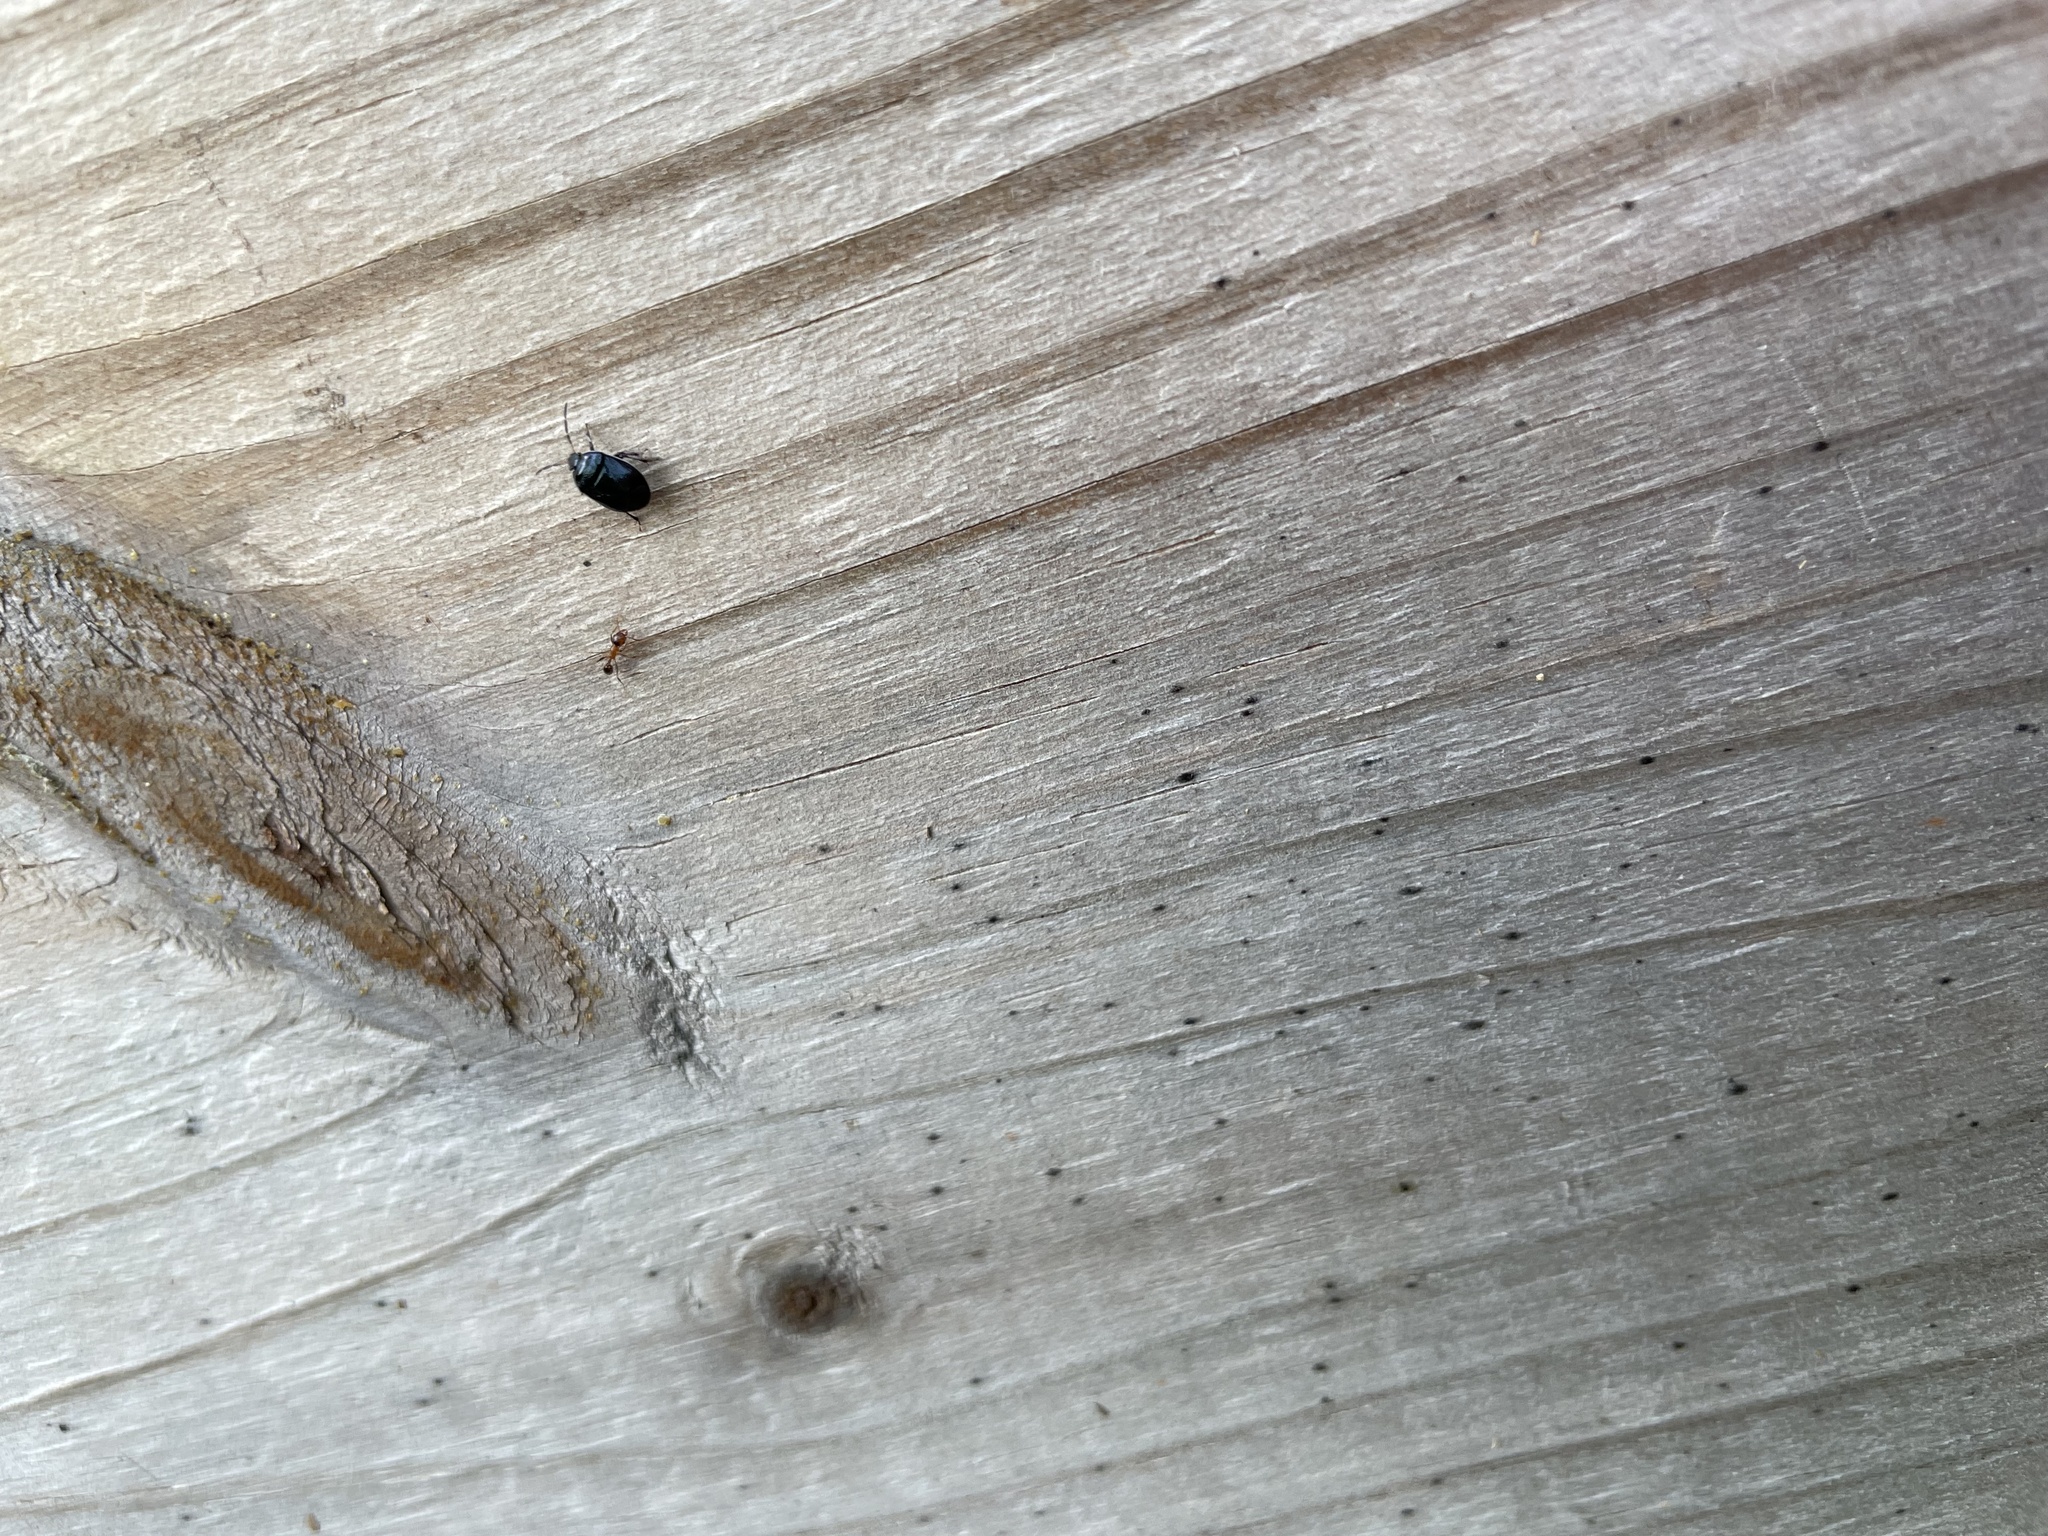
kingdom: Animalia
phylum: Arthropoda
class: Insecta
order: Hemiptera
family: Cydnidae
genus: Sehirus
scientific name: Sehirus cinctus
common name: White-margined burrower bug
